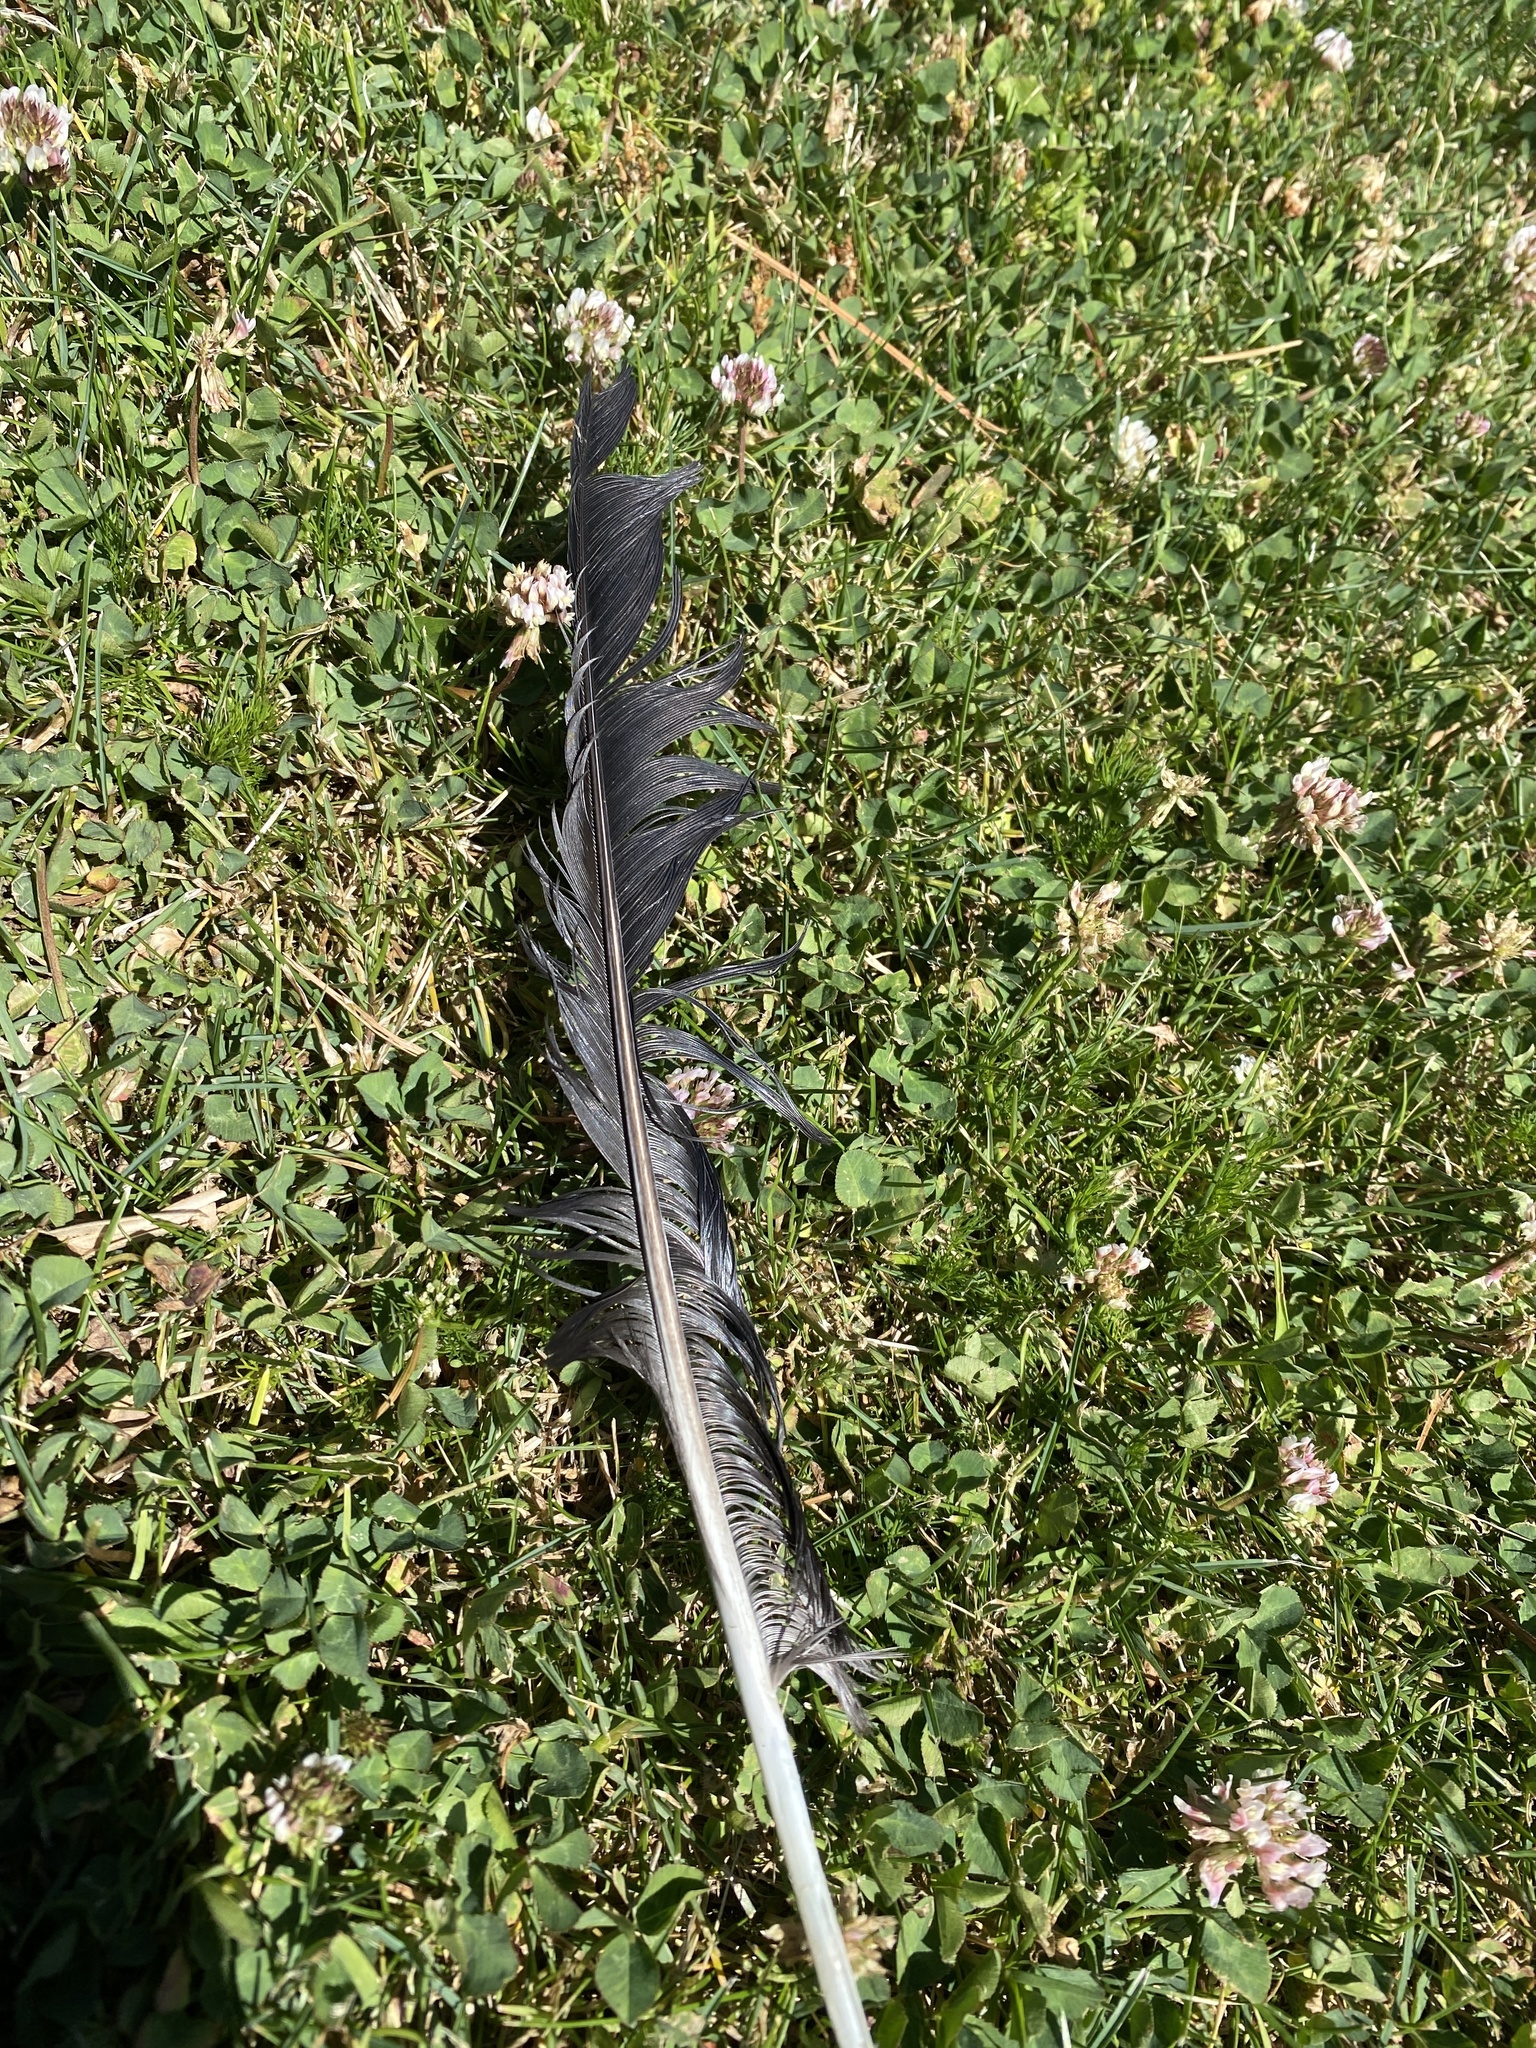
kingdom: Animalia
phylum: Chordata
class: Aves
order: Passeriformes
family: Corvidae
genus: Corvus
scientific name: Corvus brachyrhynchos
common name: American crow
